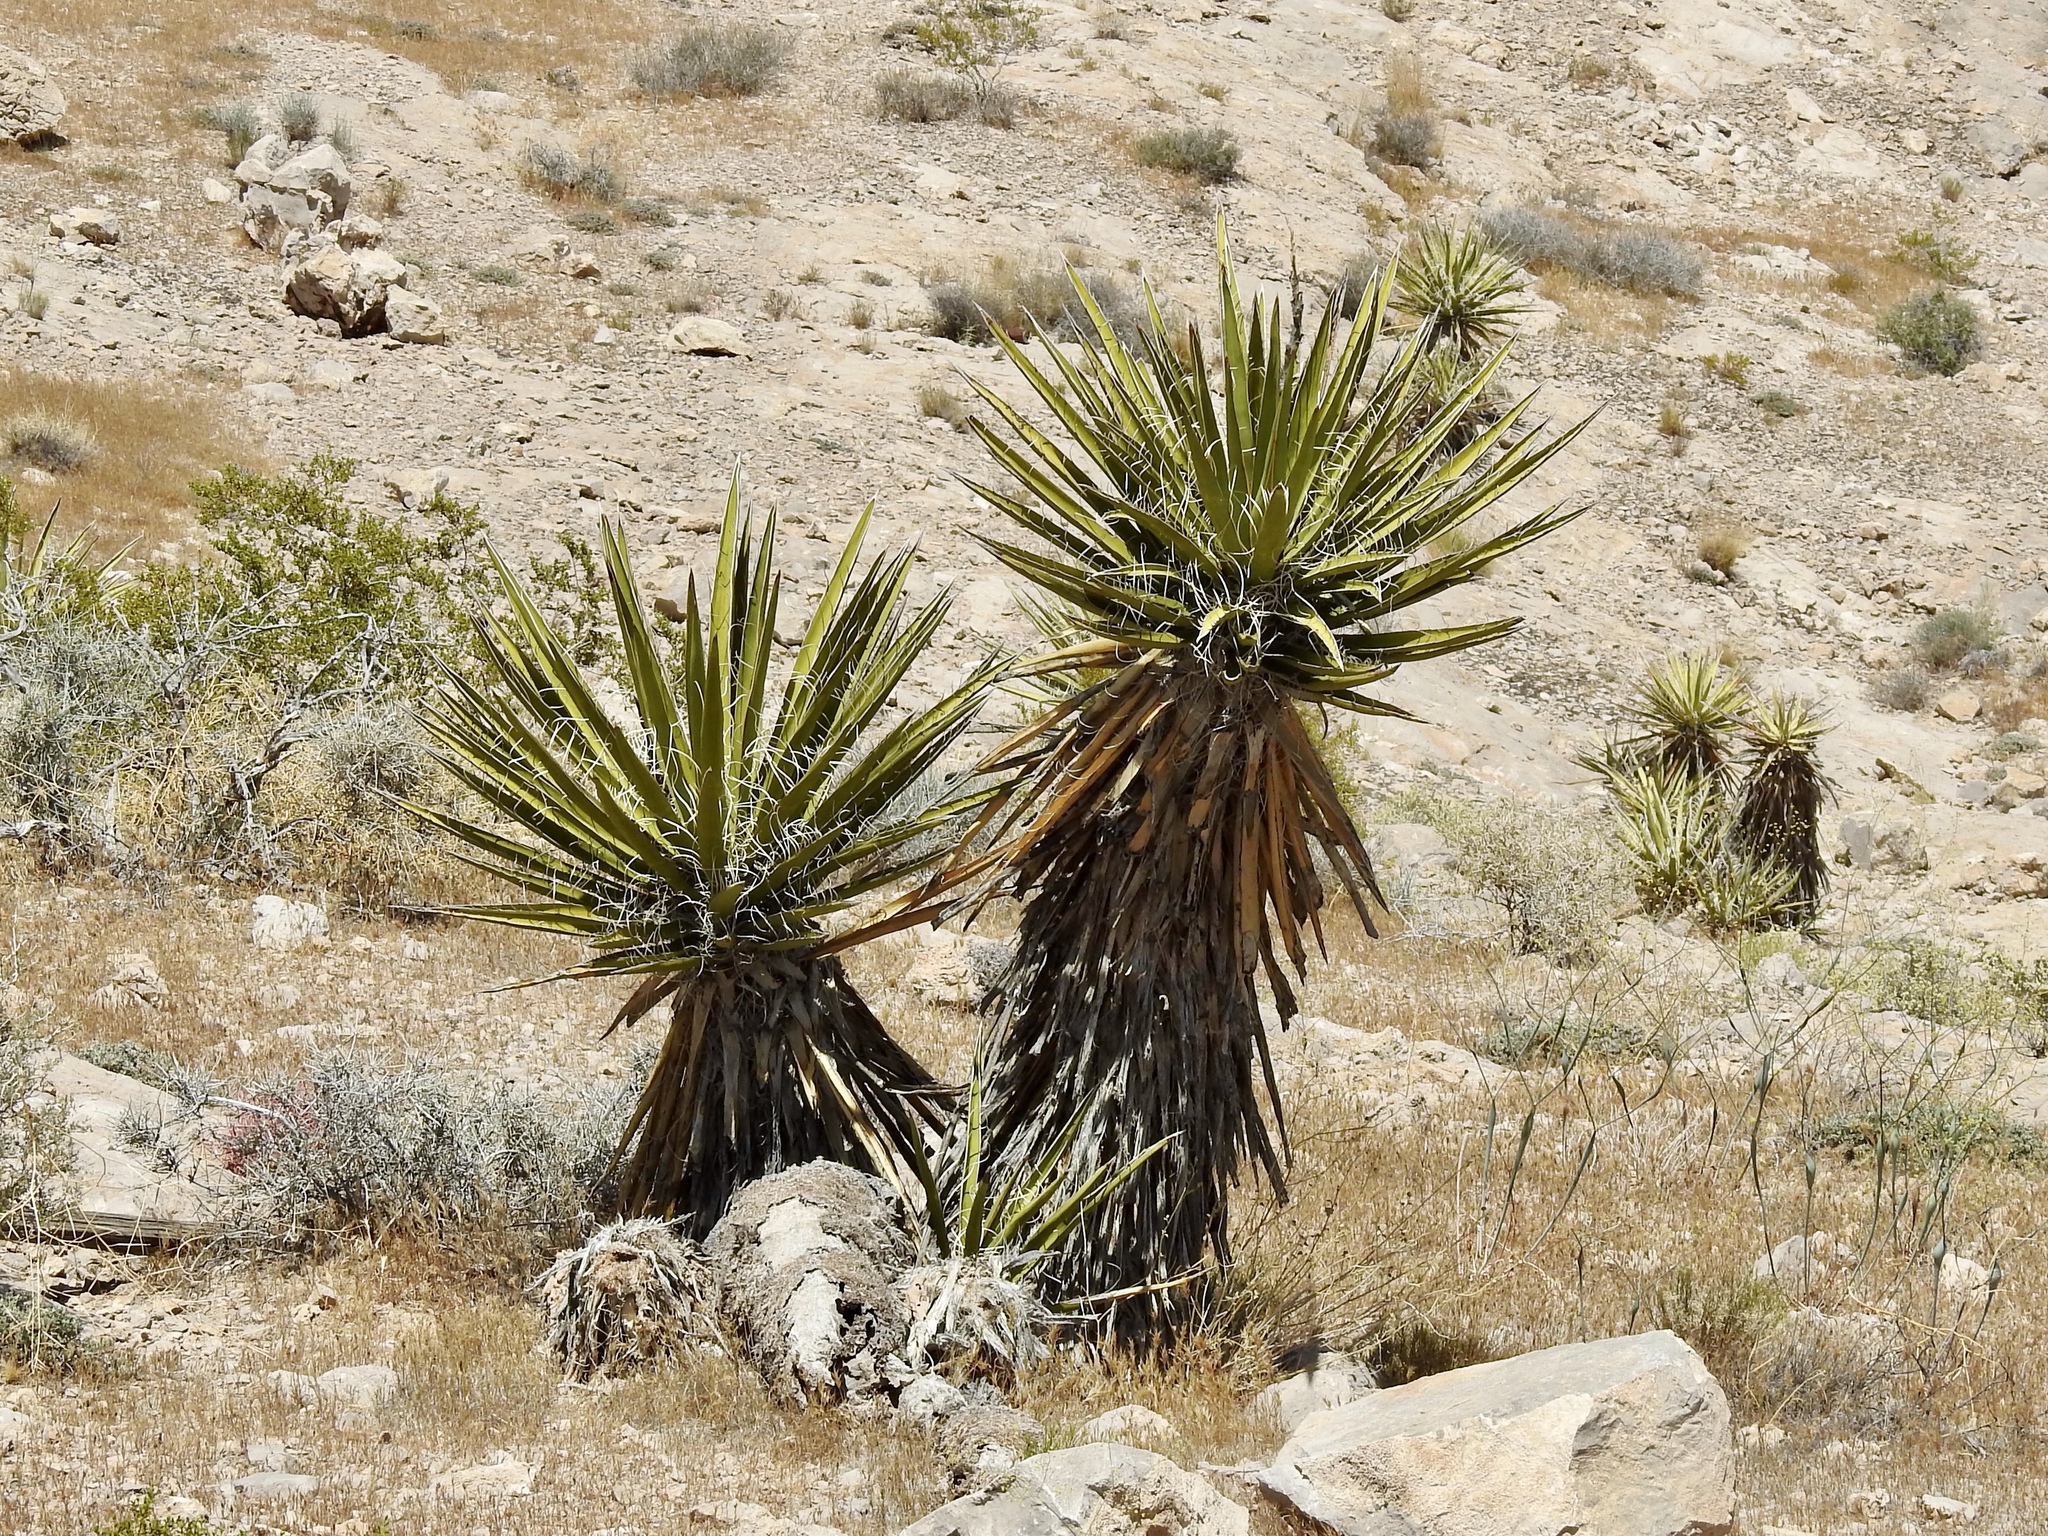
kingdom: Plantae
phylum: Tracheophyta
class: Liliopsida
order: Asparagales
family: Asparagaceae
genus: Yucca
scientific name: Yucca schidigera
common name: Mojave yucca
